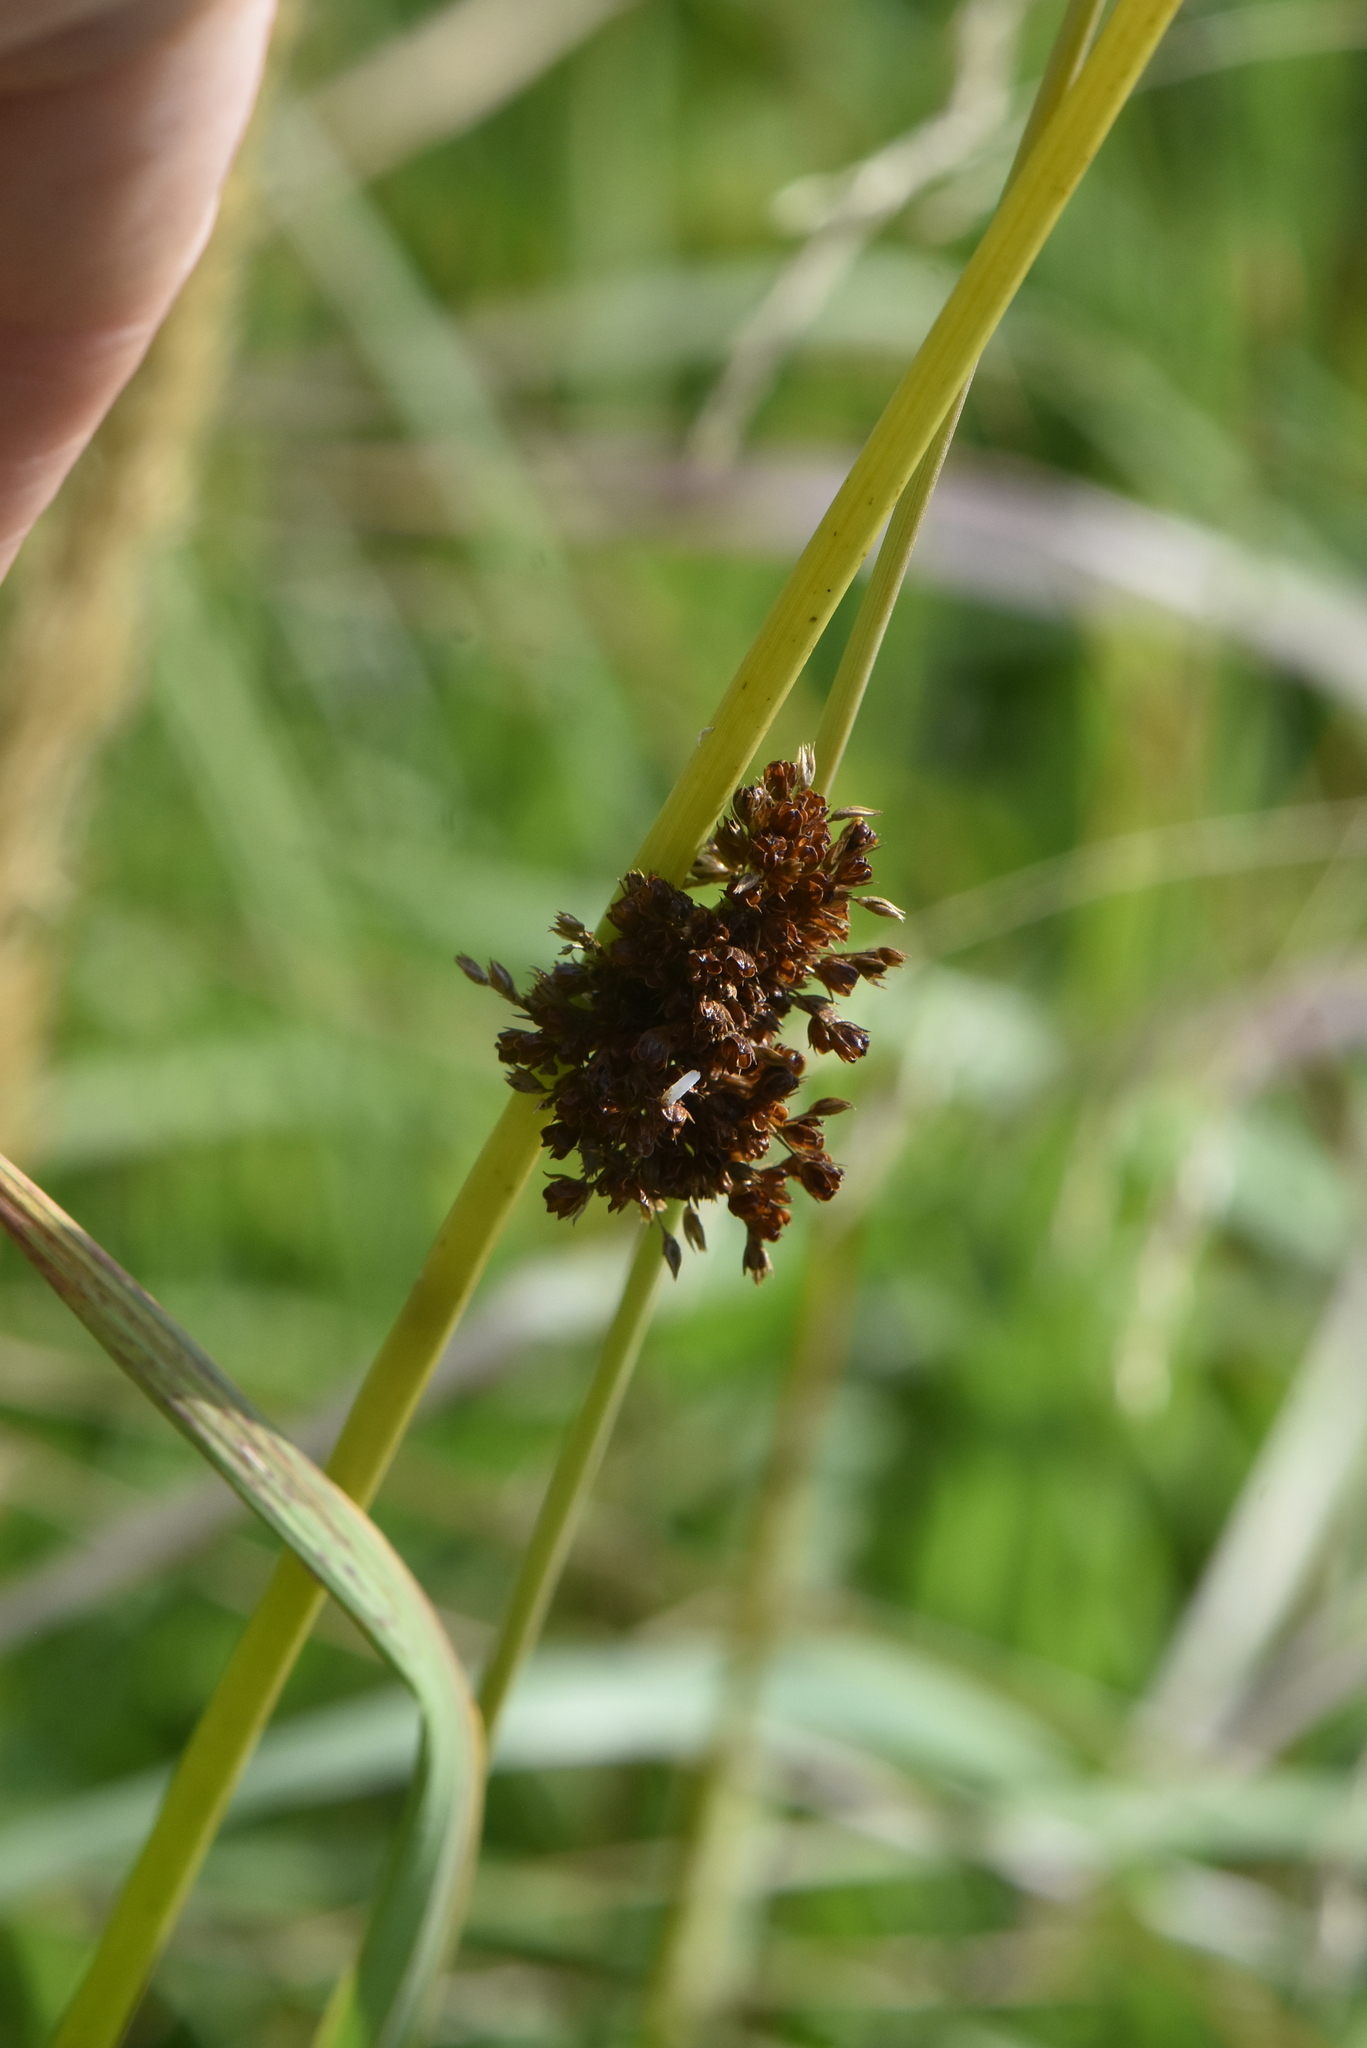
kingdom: Plantae
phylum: Tracheophyta
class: Liliopsida
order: Poales
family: Juncaceae
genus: Juncus
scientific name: Juncus effusus
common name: Soft rush
